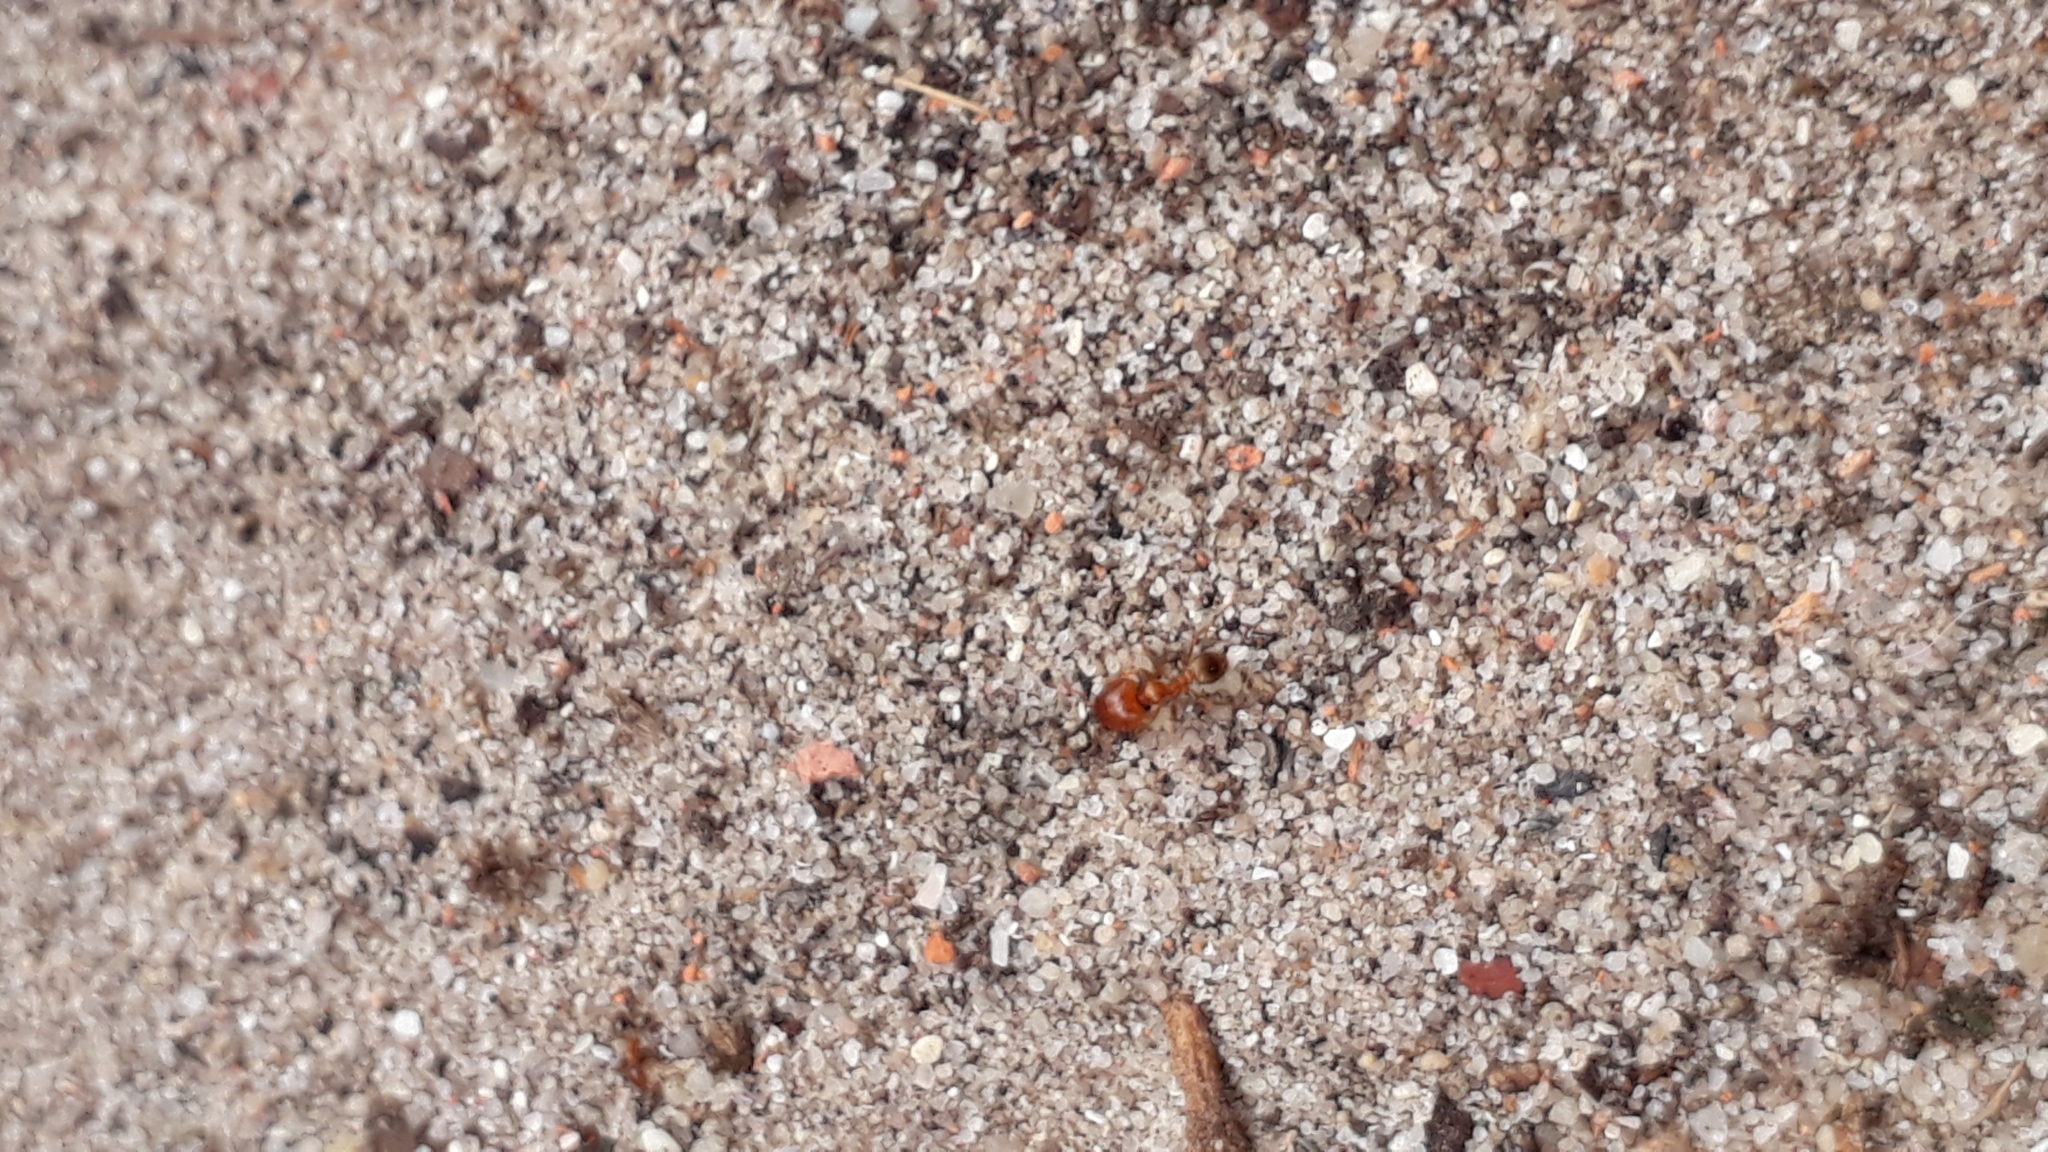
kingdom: Animalia
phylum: Arthropoda
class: Insecta
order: Hymenoptera
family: Formicidae
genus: Pheidole
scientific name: Pheidole megacephala
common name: Bigheaded ant
